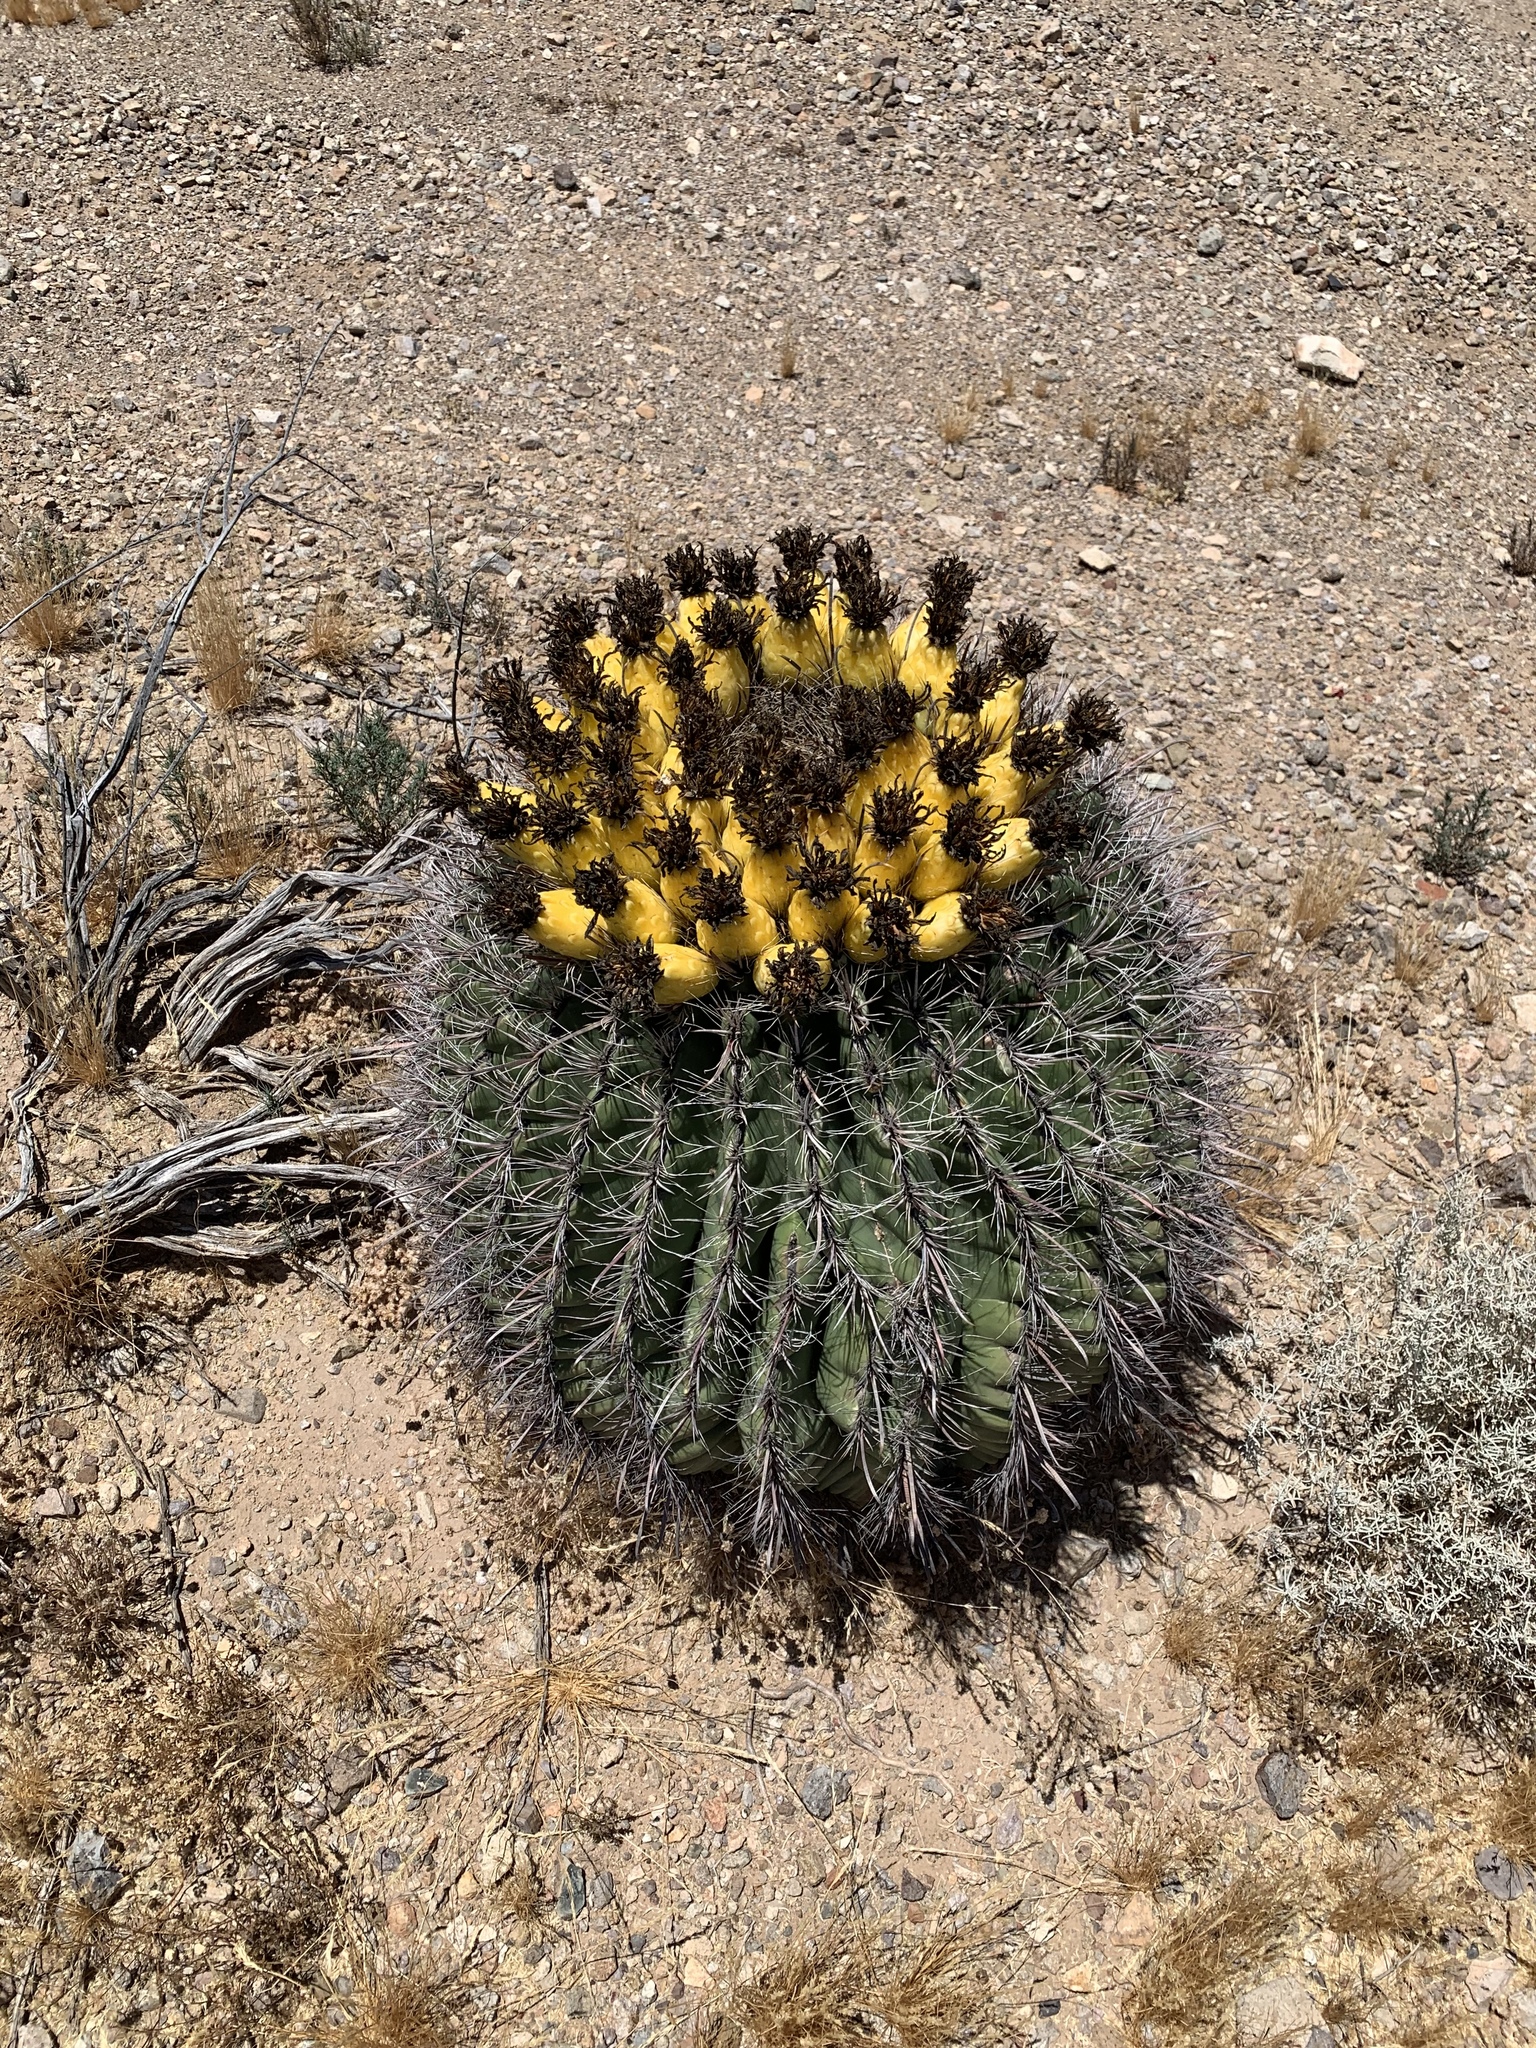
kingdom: Plantae
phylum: Tracheophyta
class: Magnoliopsida
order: Caryophyllales
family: Cactaceae
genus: Ferocactus
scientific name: Ferocactus wislizeni
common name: Candy barrel cactus
